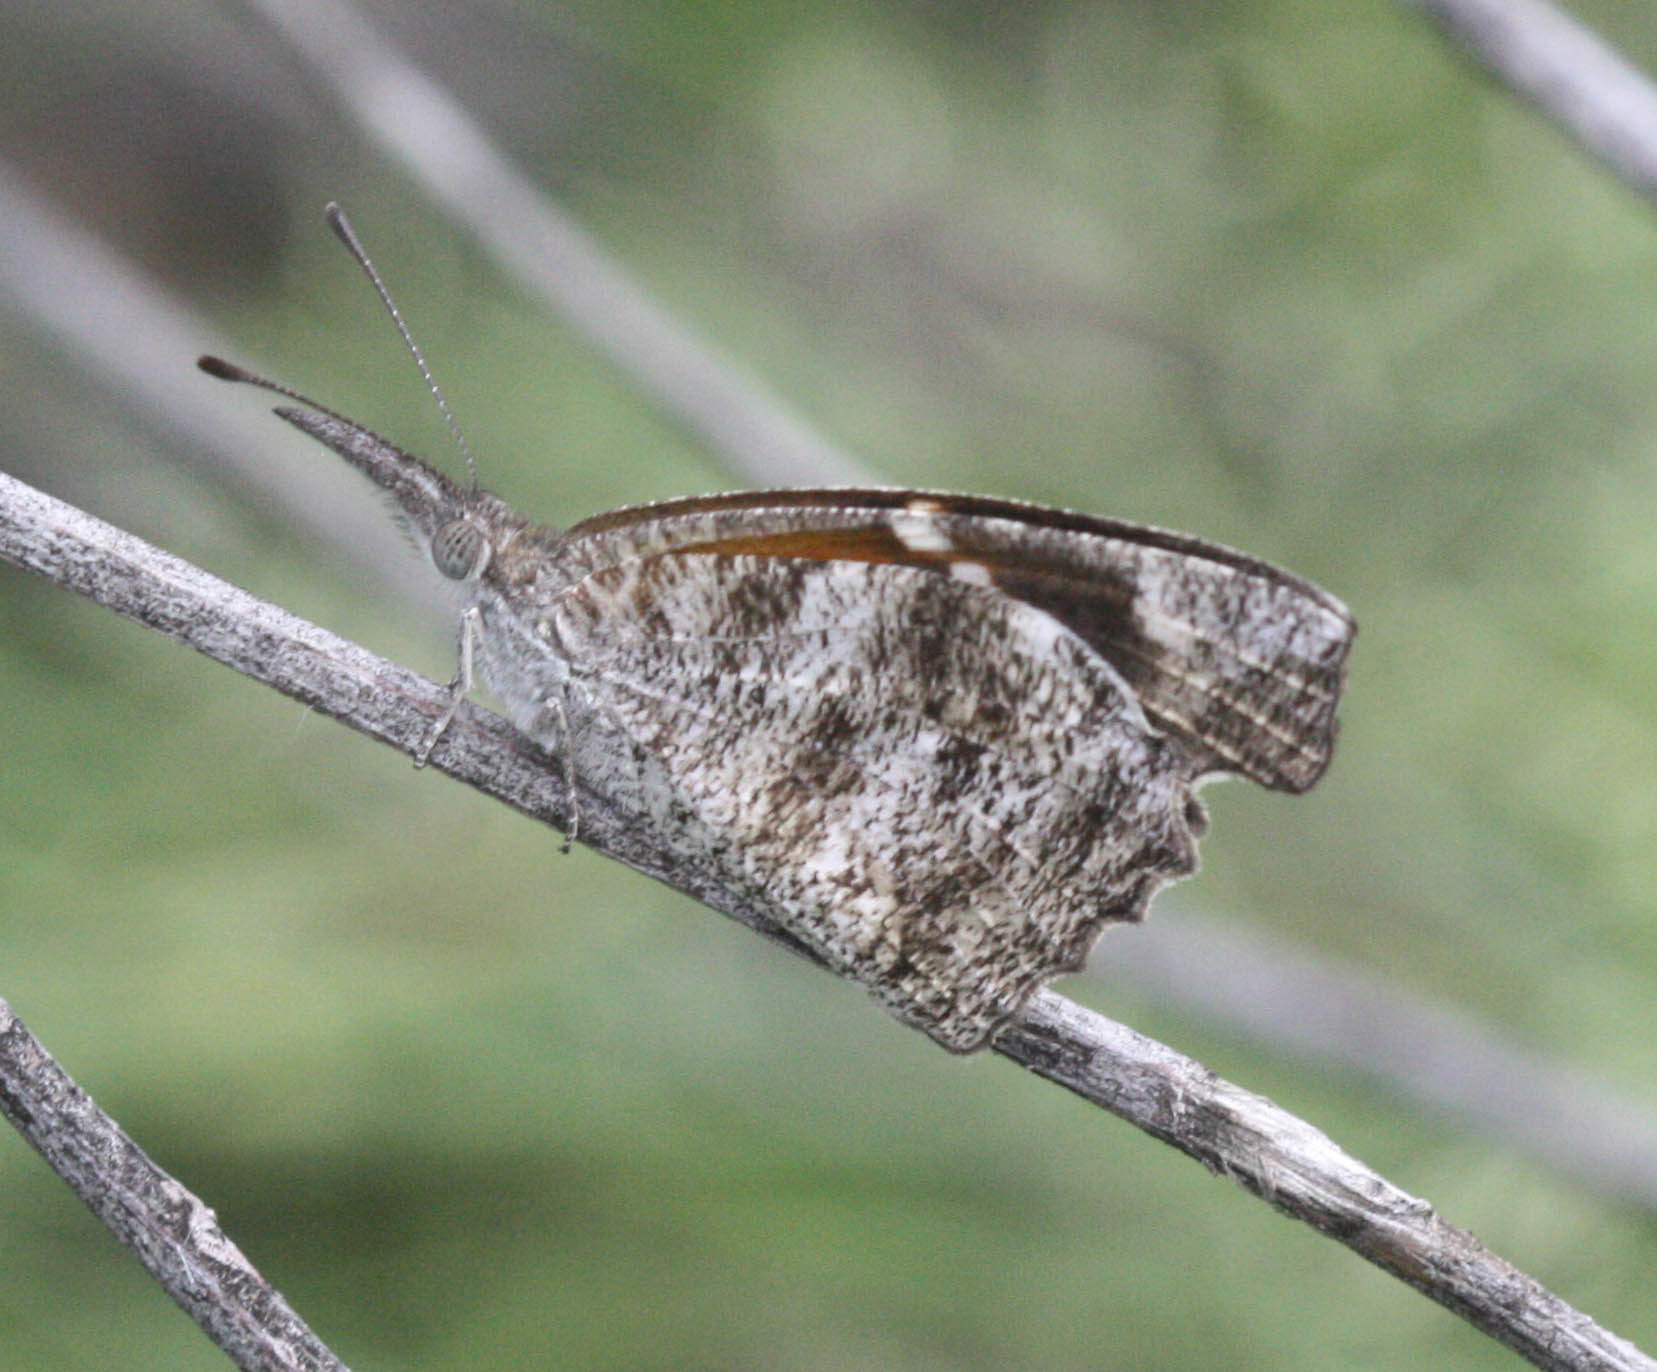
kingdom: Animalia
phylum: Arthropoda
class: Insecta
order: Lepidoptera
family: Nymphalidae
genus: Libytheana
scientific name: Libytheana carinenta
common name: American snout
